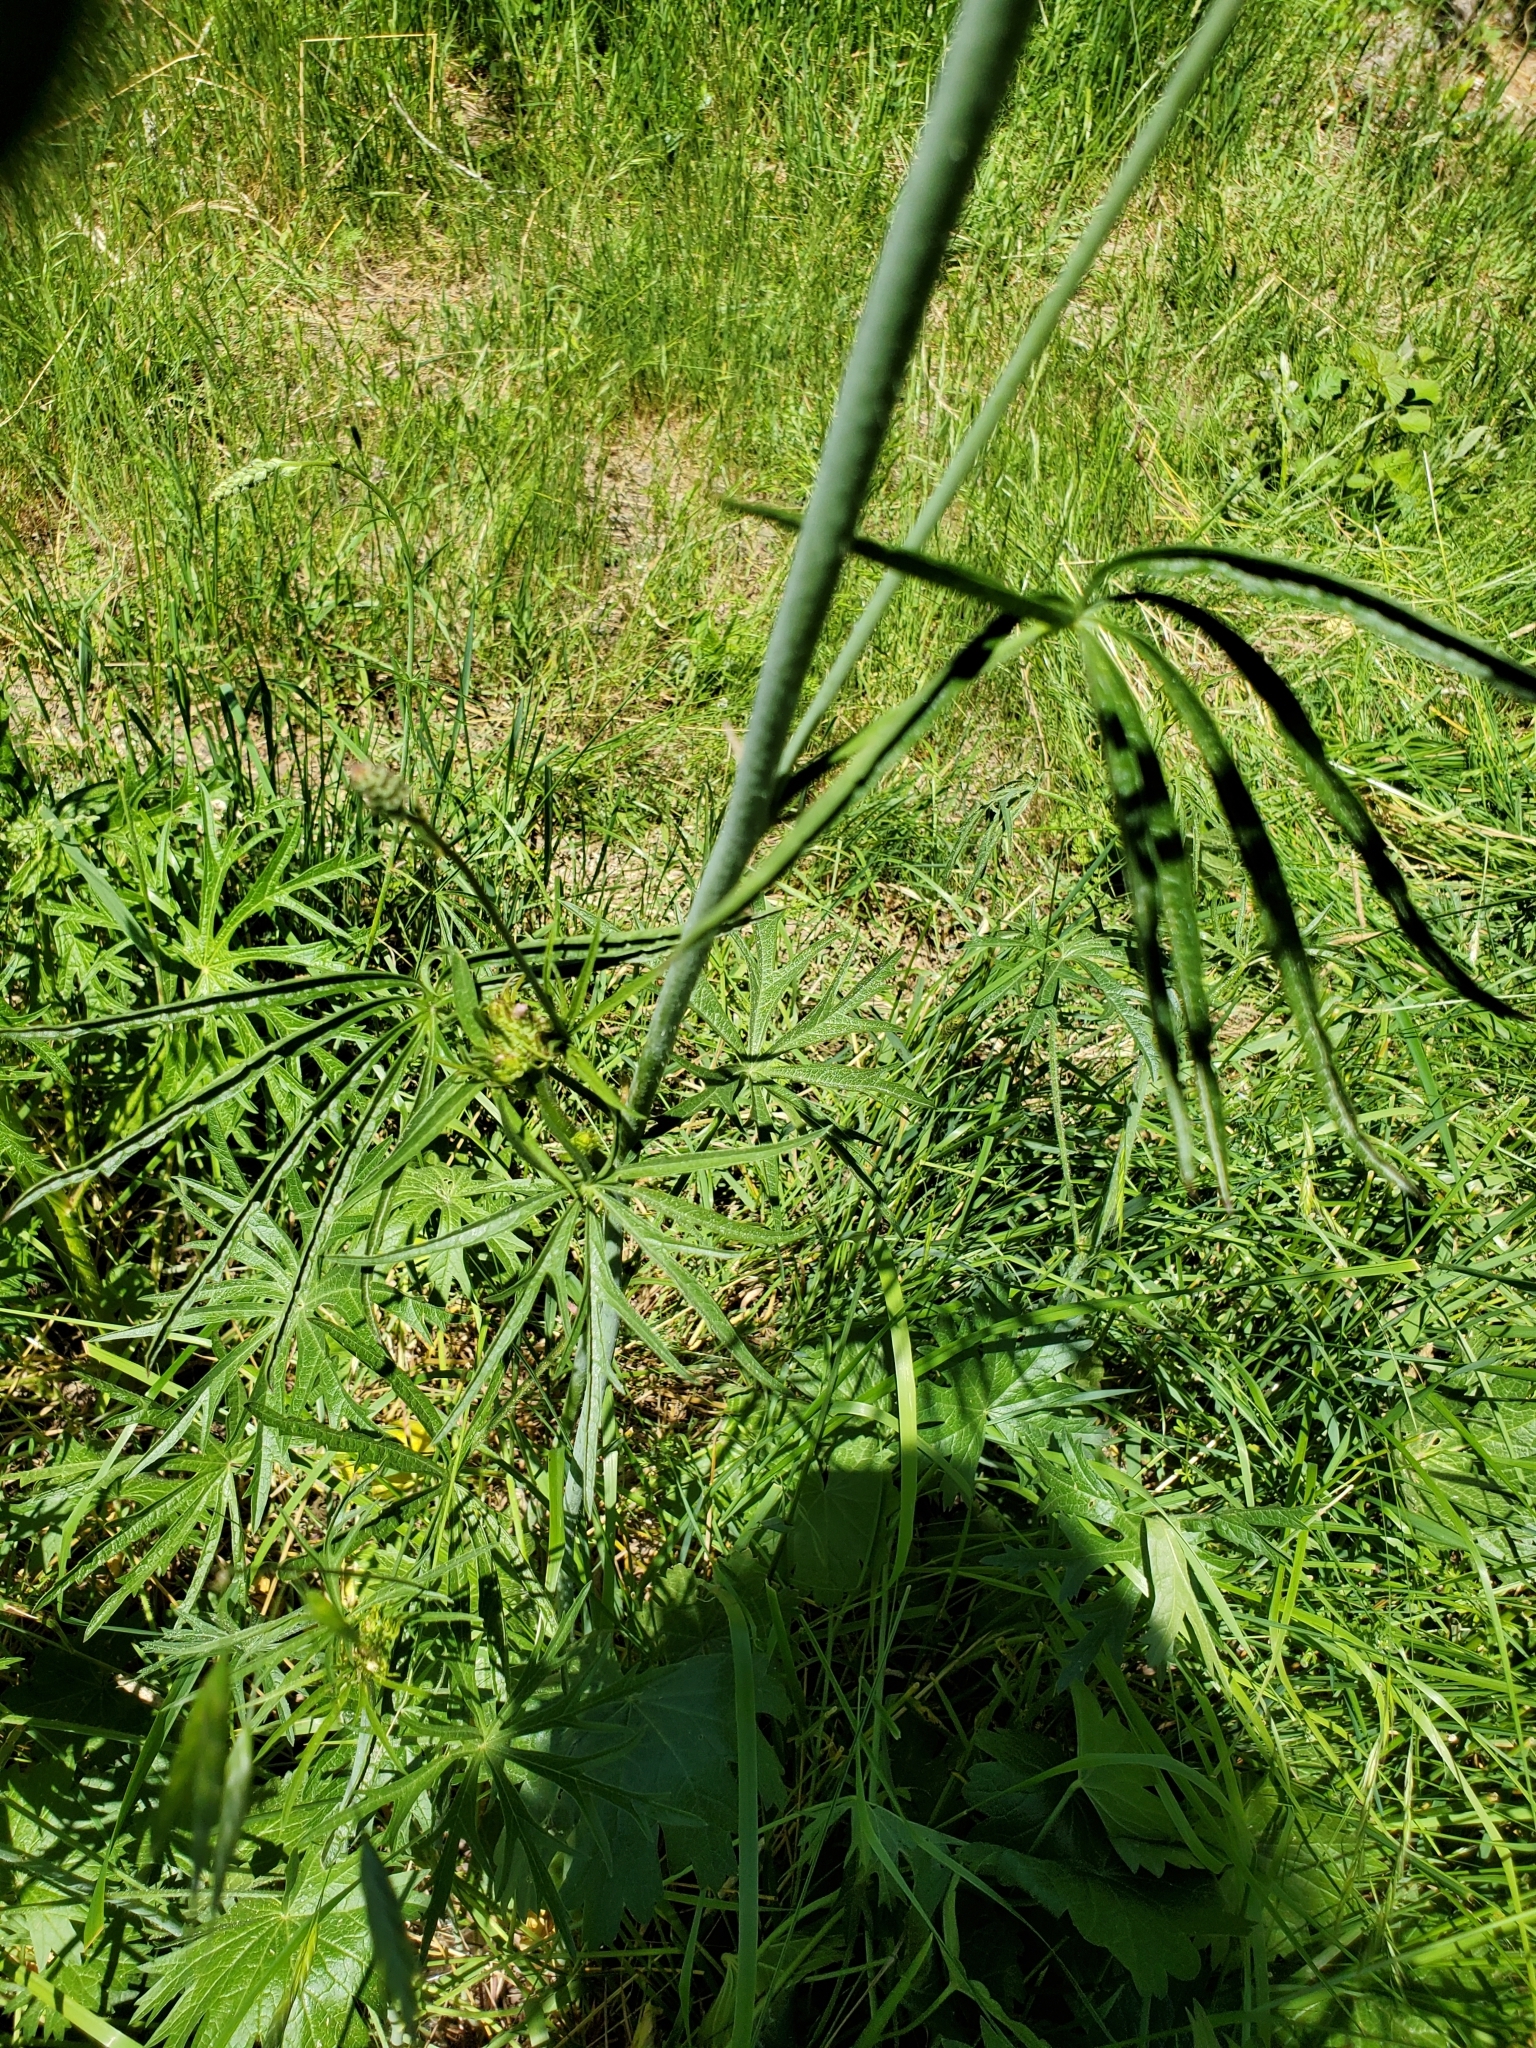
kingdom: Plantae
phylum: Tracheophyta
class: Magnoliopsida
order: Malvales
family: Malvaceae
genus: Sidalcea
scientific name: Sidalcea campestris
